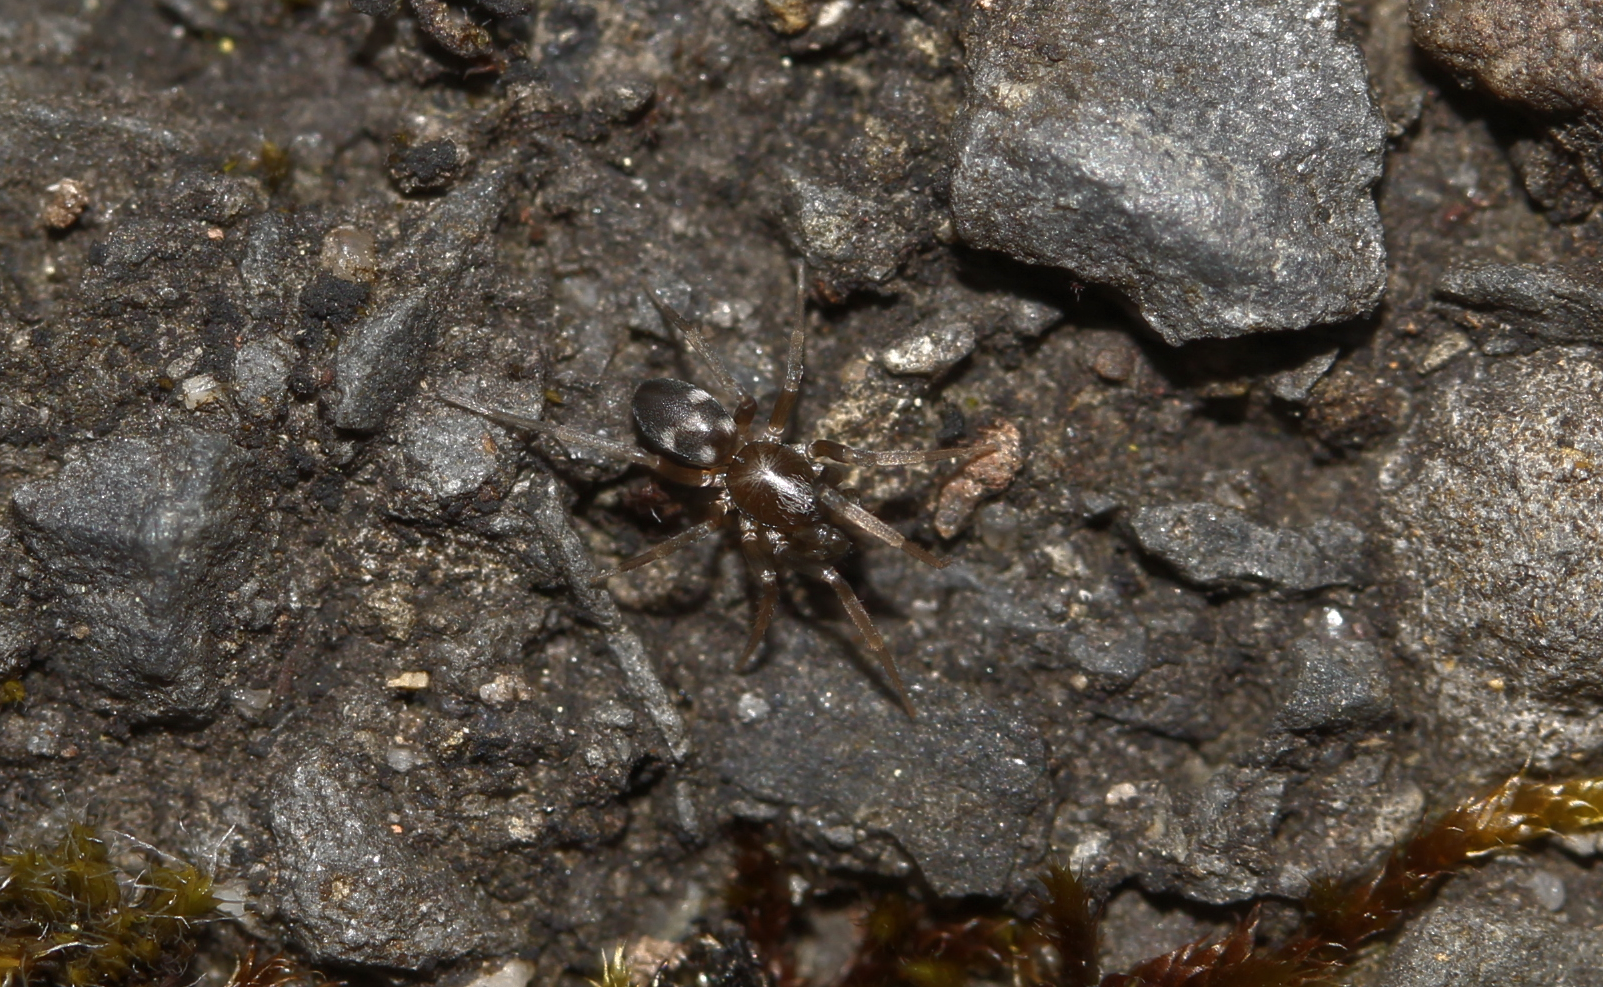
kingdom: Animalia
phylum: Arthropoda
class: Arachnida
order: Araneae
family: Phrurolithidae
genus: Phrurolithus
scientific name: Phrurolithus
